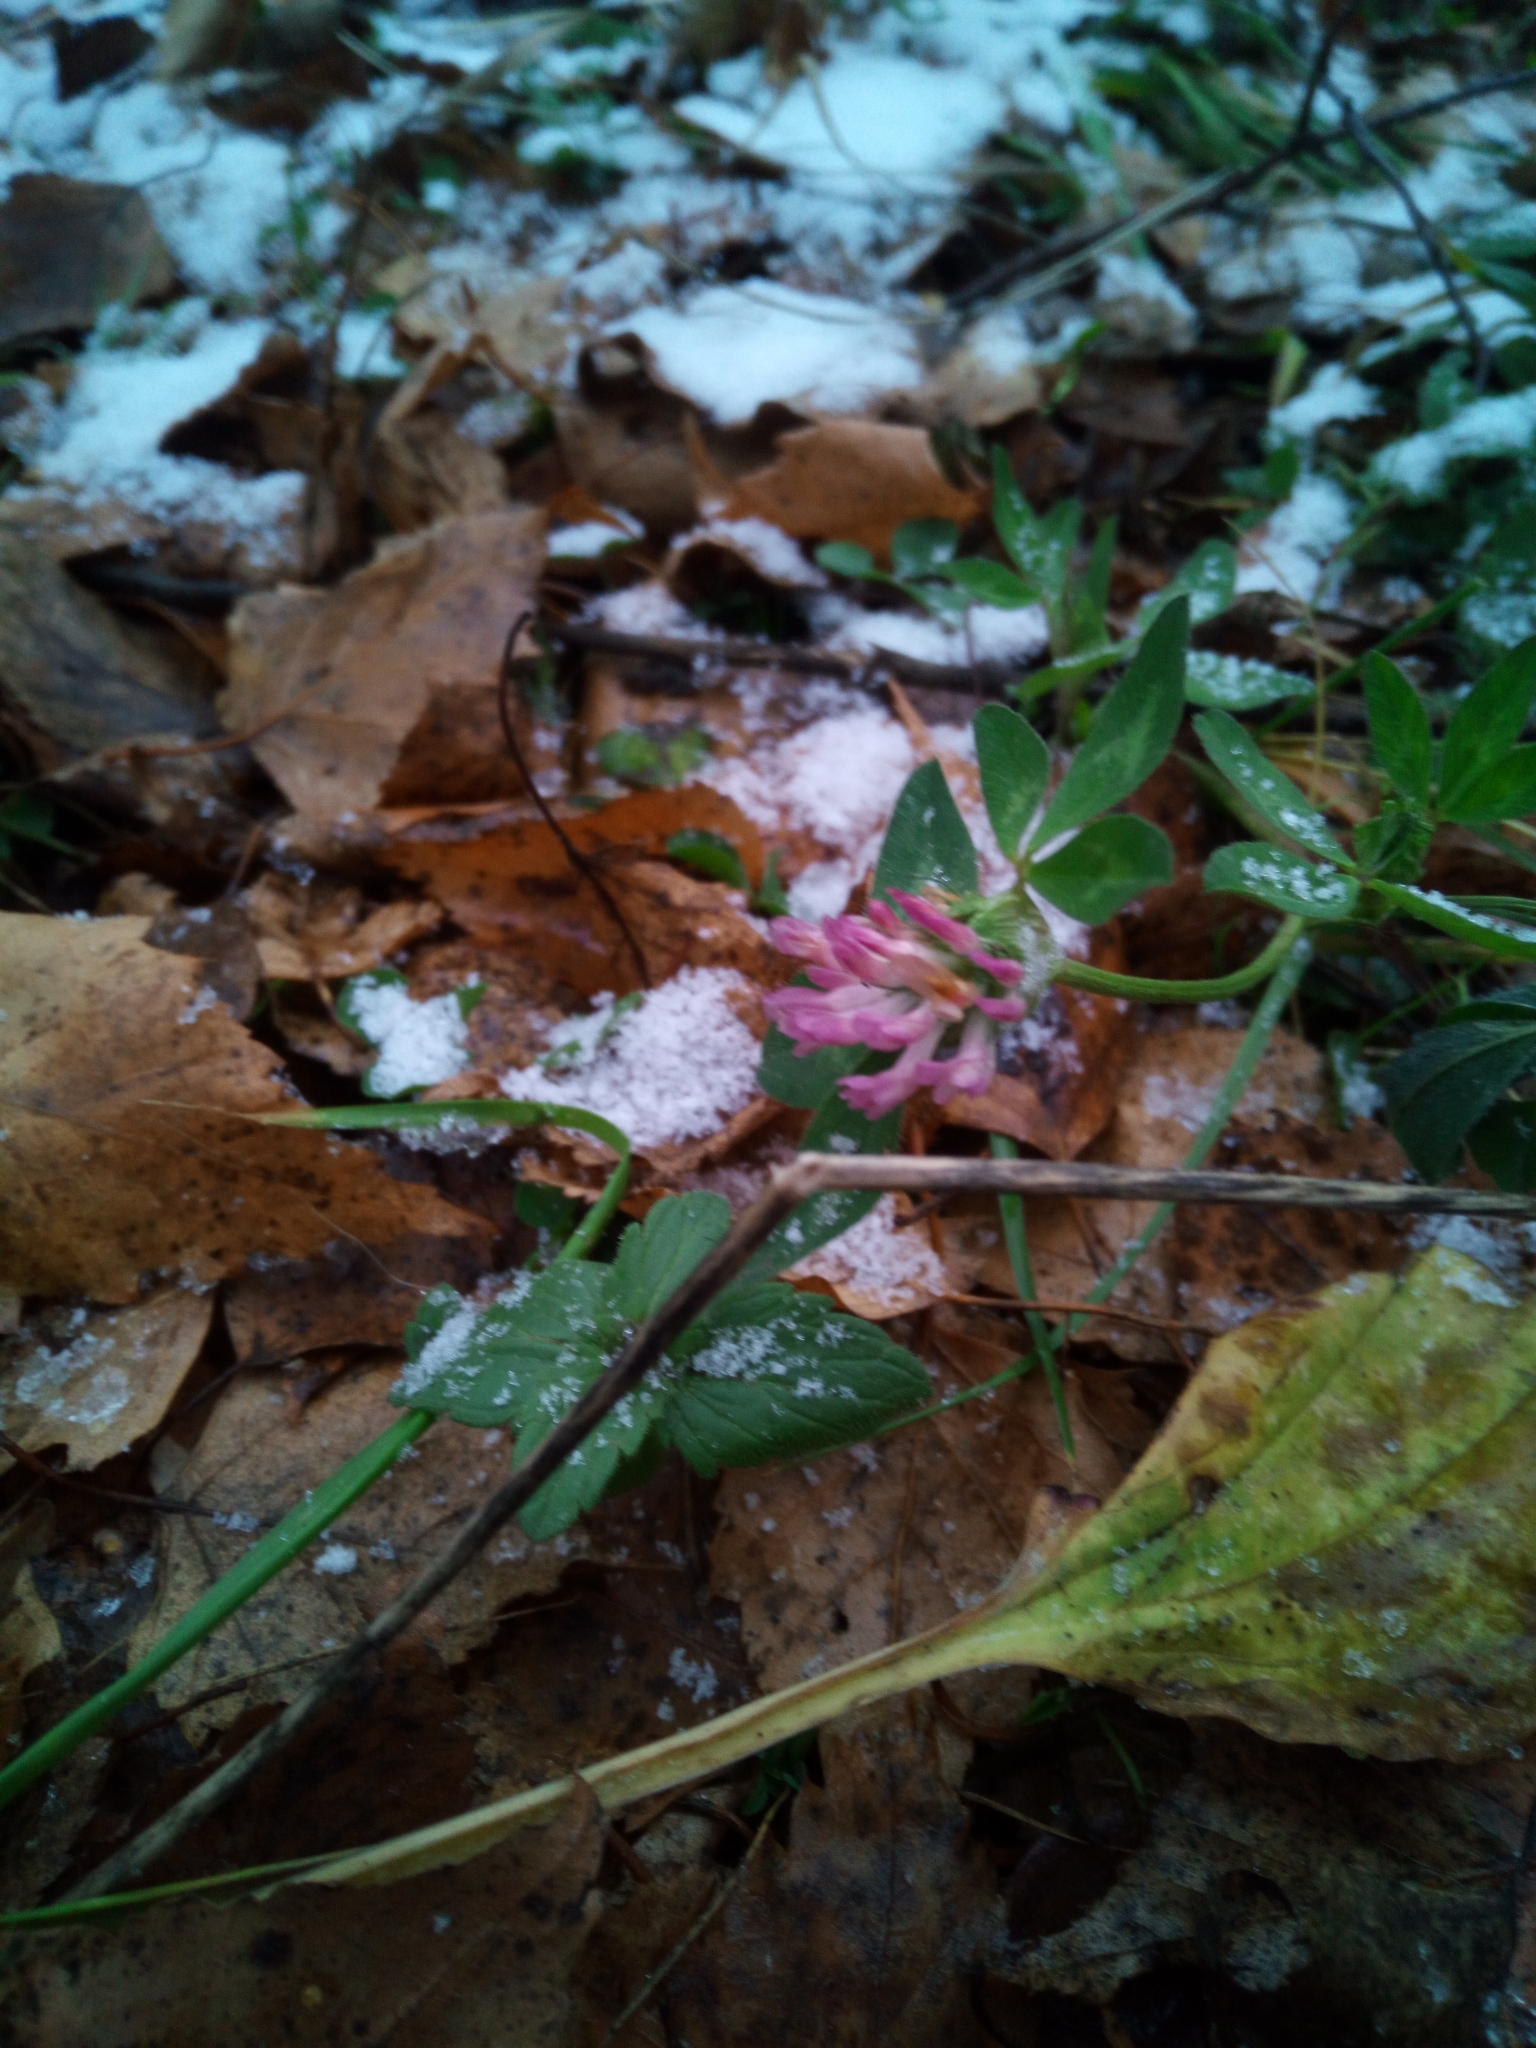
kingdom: Plantae
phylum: Tracheophyta
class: Magnoliopsida
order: Fabales
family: Fabaceae
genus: Trifolium
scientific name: Trifolium pratense
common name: Red clover
